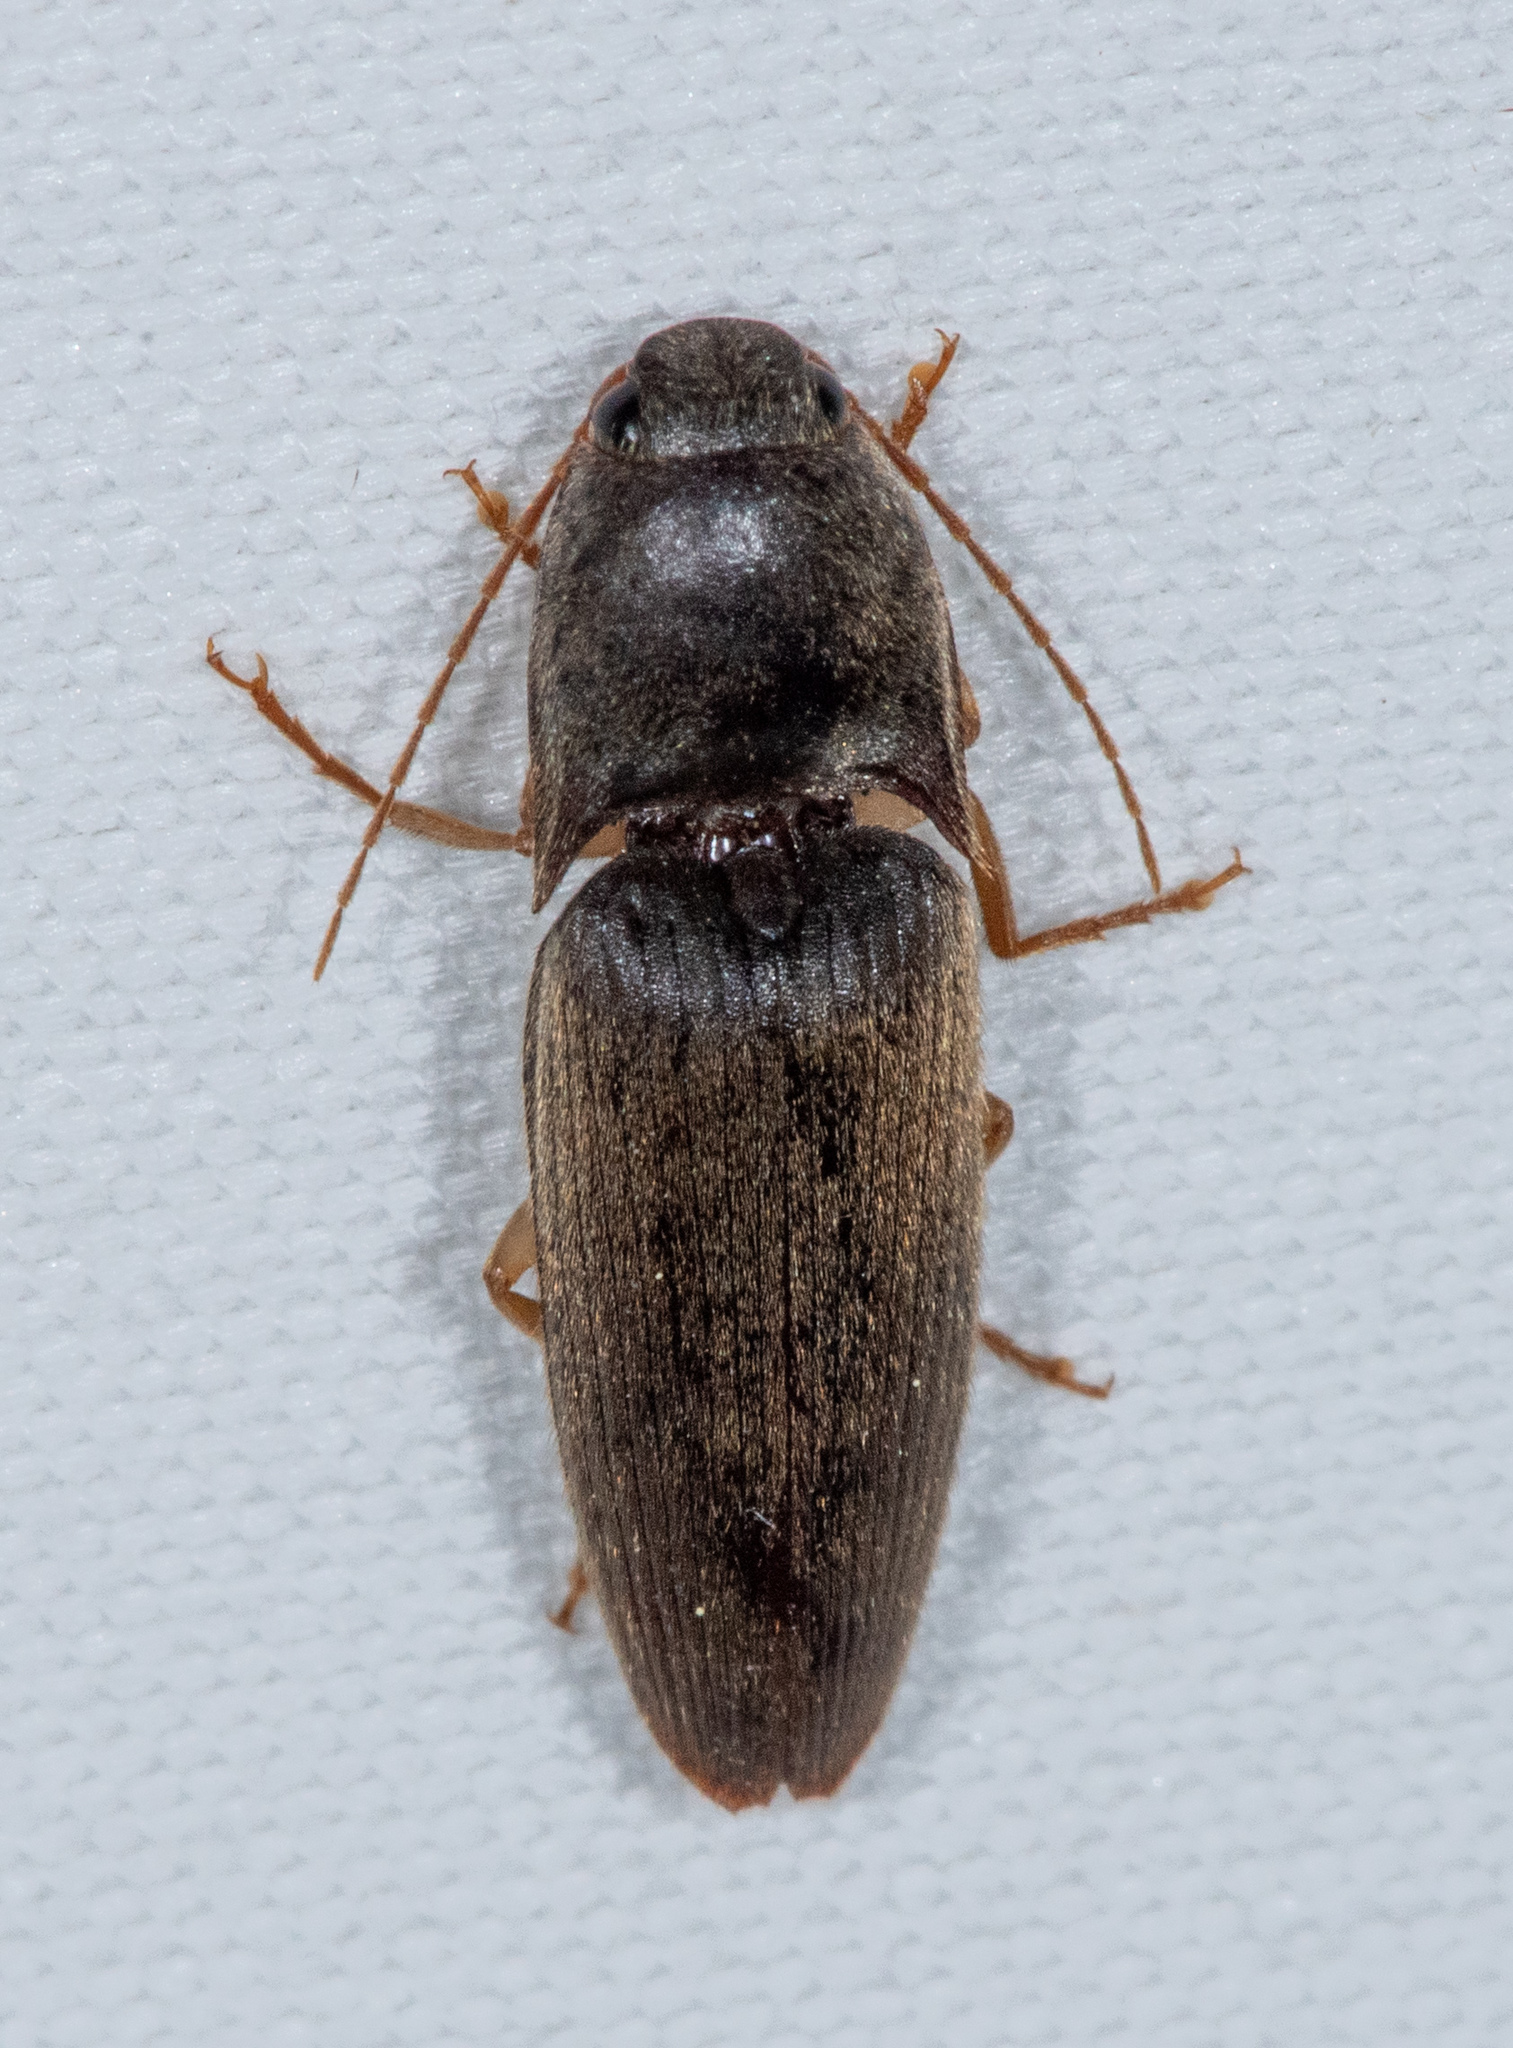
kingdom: Animalia
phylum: Arthropoda
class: Insecta
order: Coleoptera
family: Elateridae
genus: Conoderus
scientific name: Conoderus exsul
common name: Click beetle
